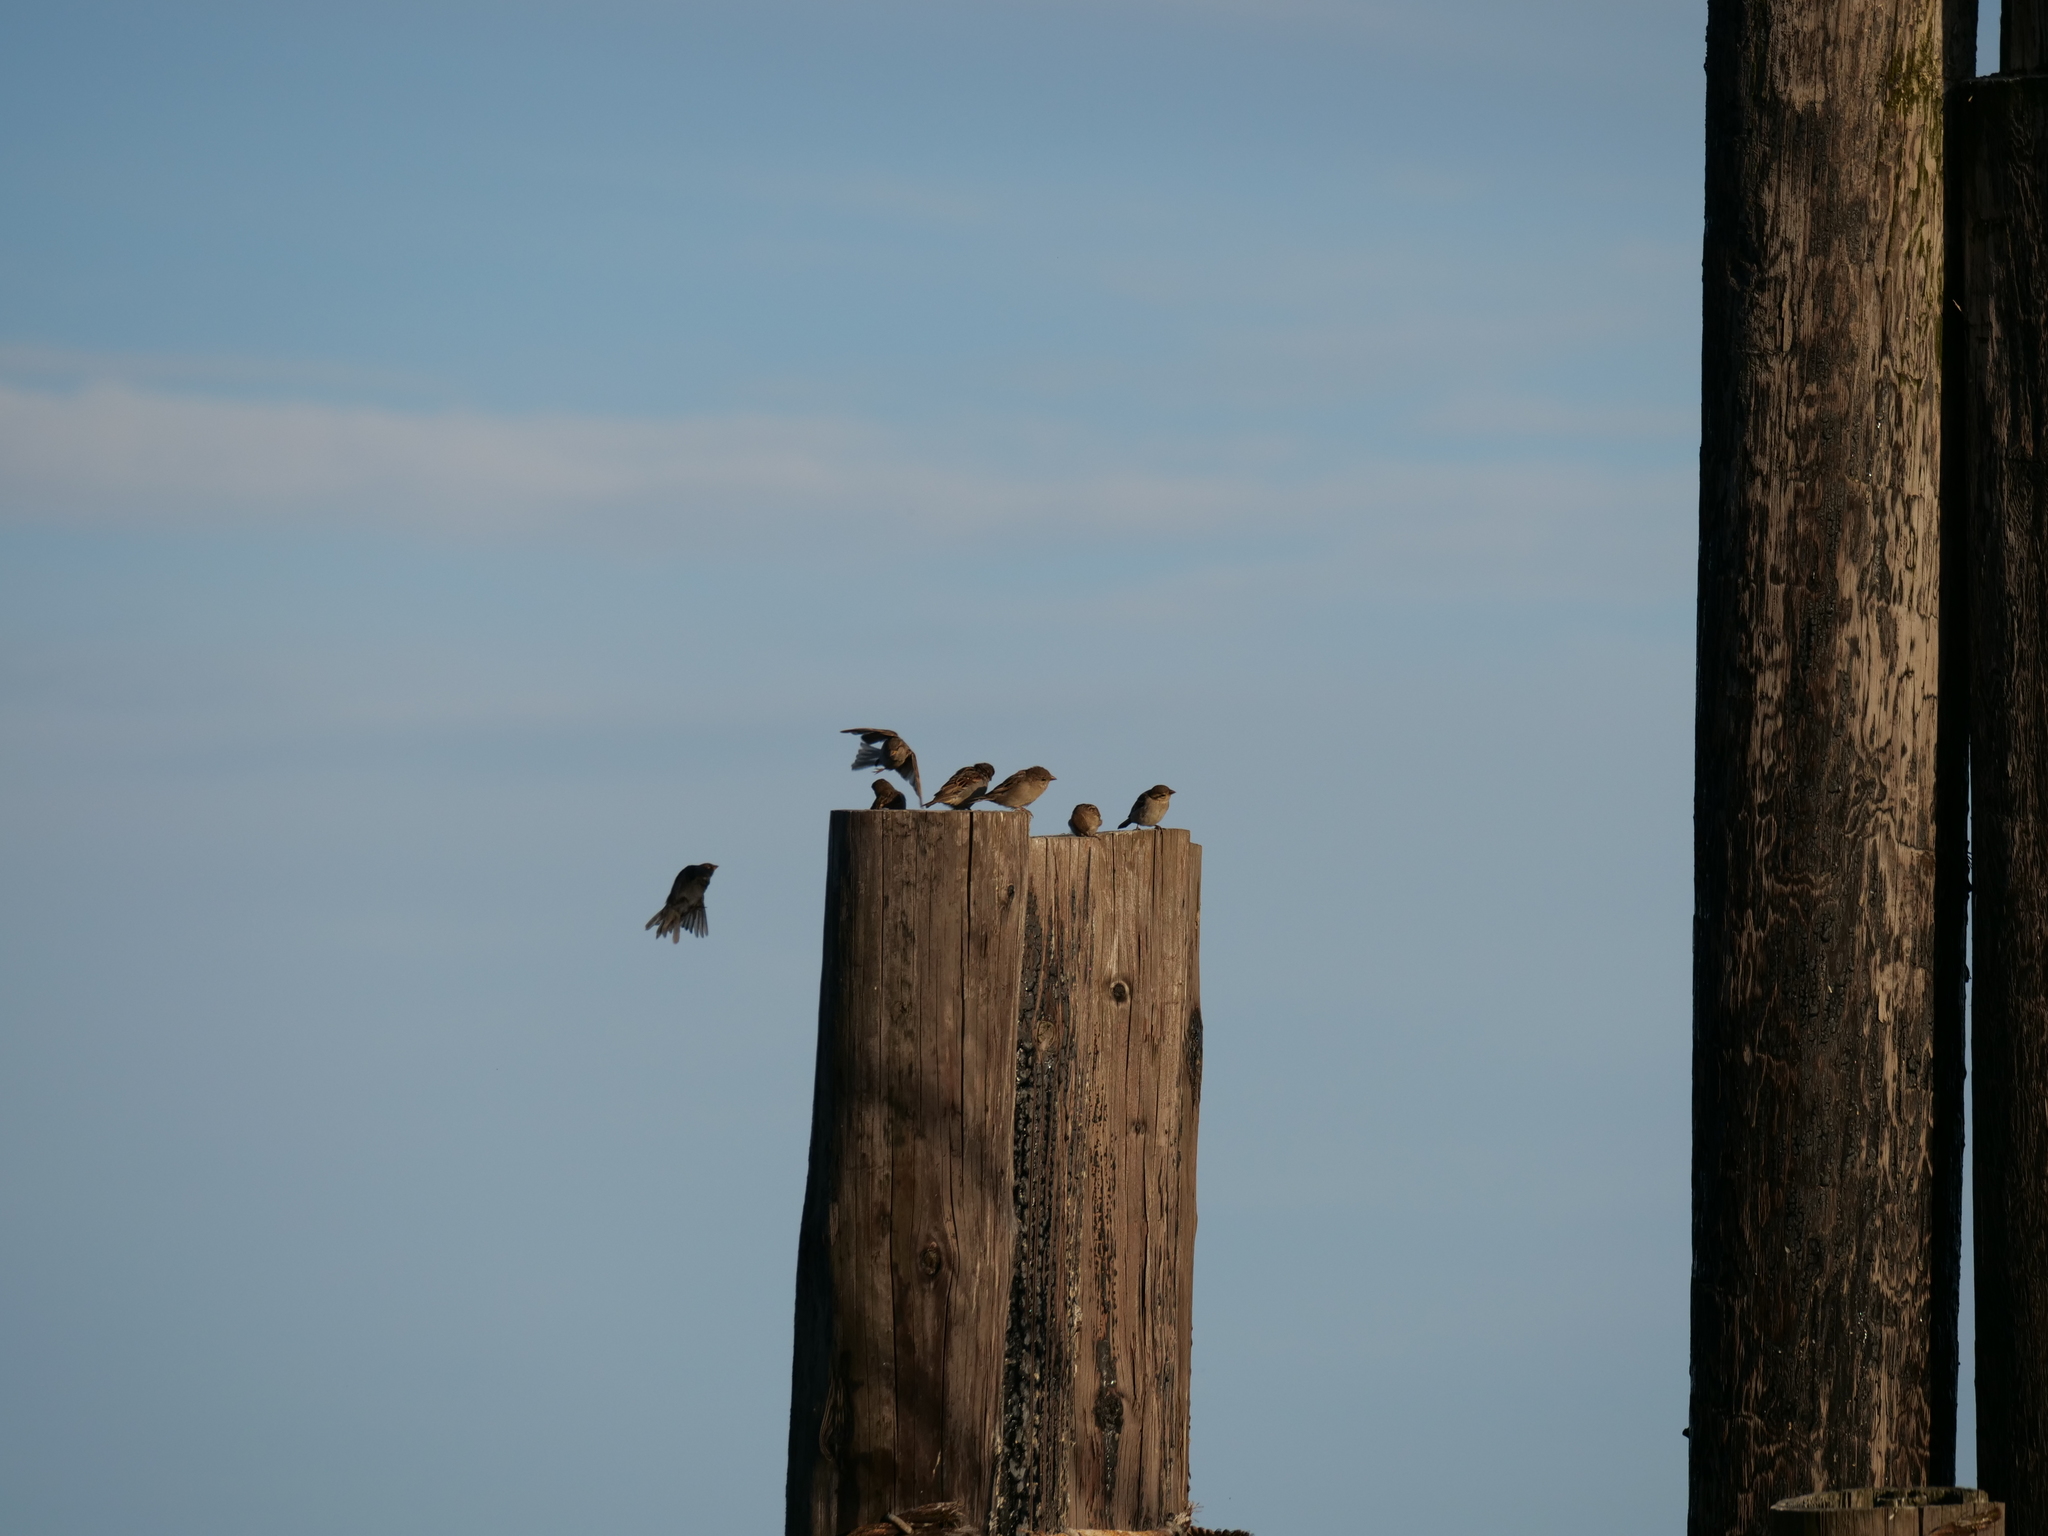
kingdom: Animalia
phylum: Chordata
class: Aves
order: Passeriformes
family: Passeridae
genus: Passer
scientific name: Passer domesticus
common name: House sparrow
